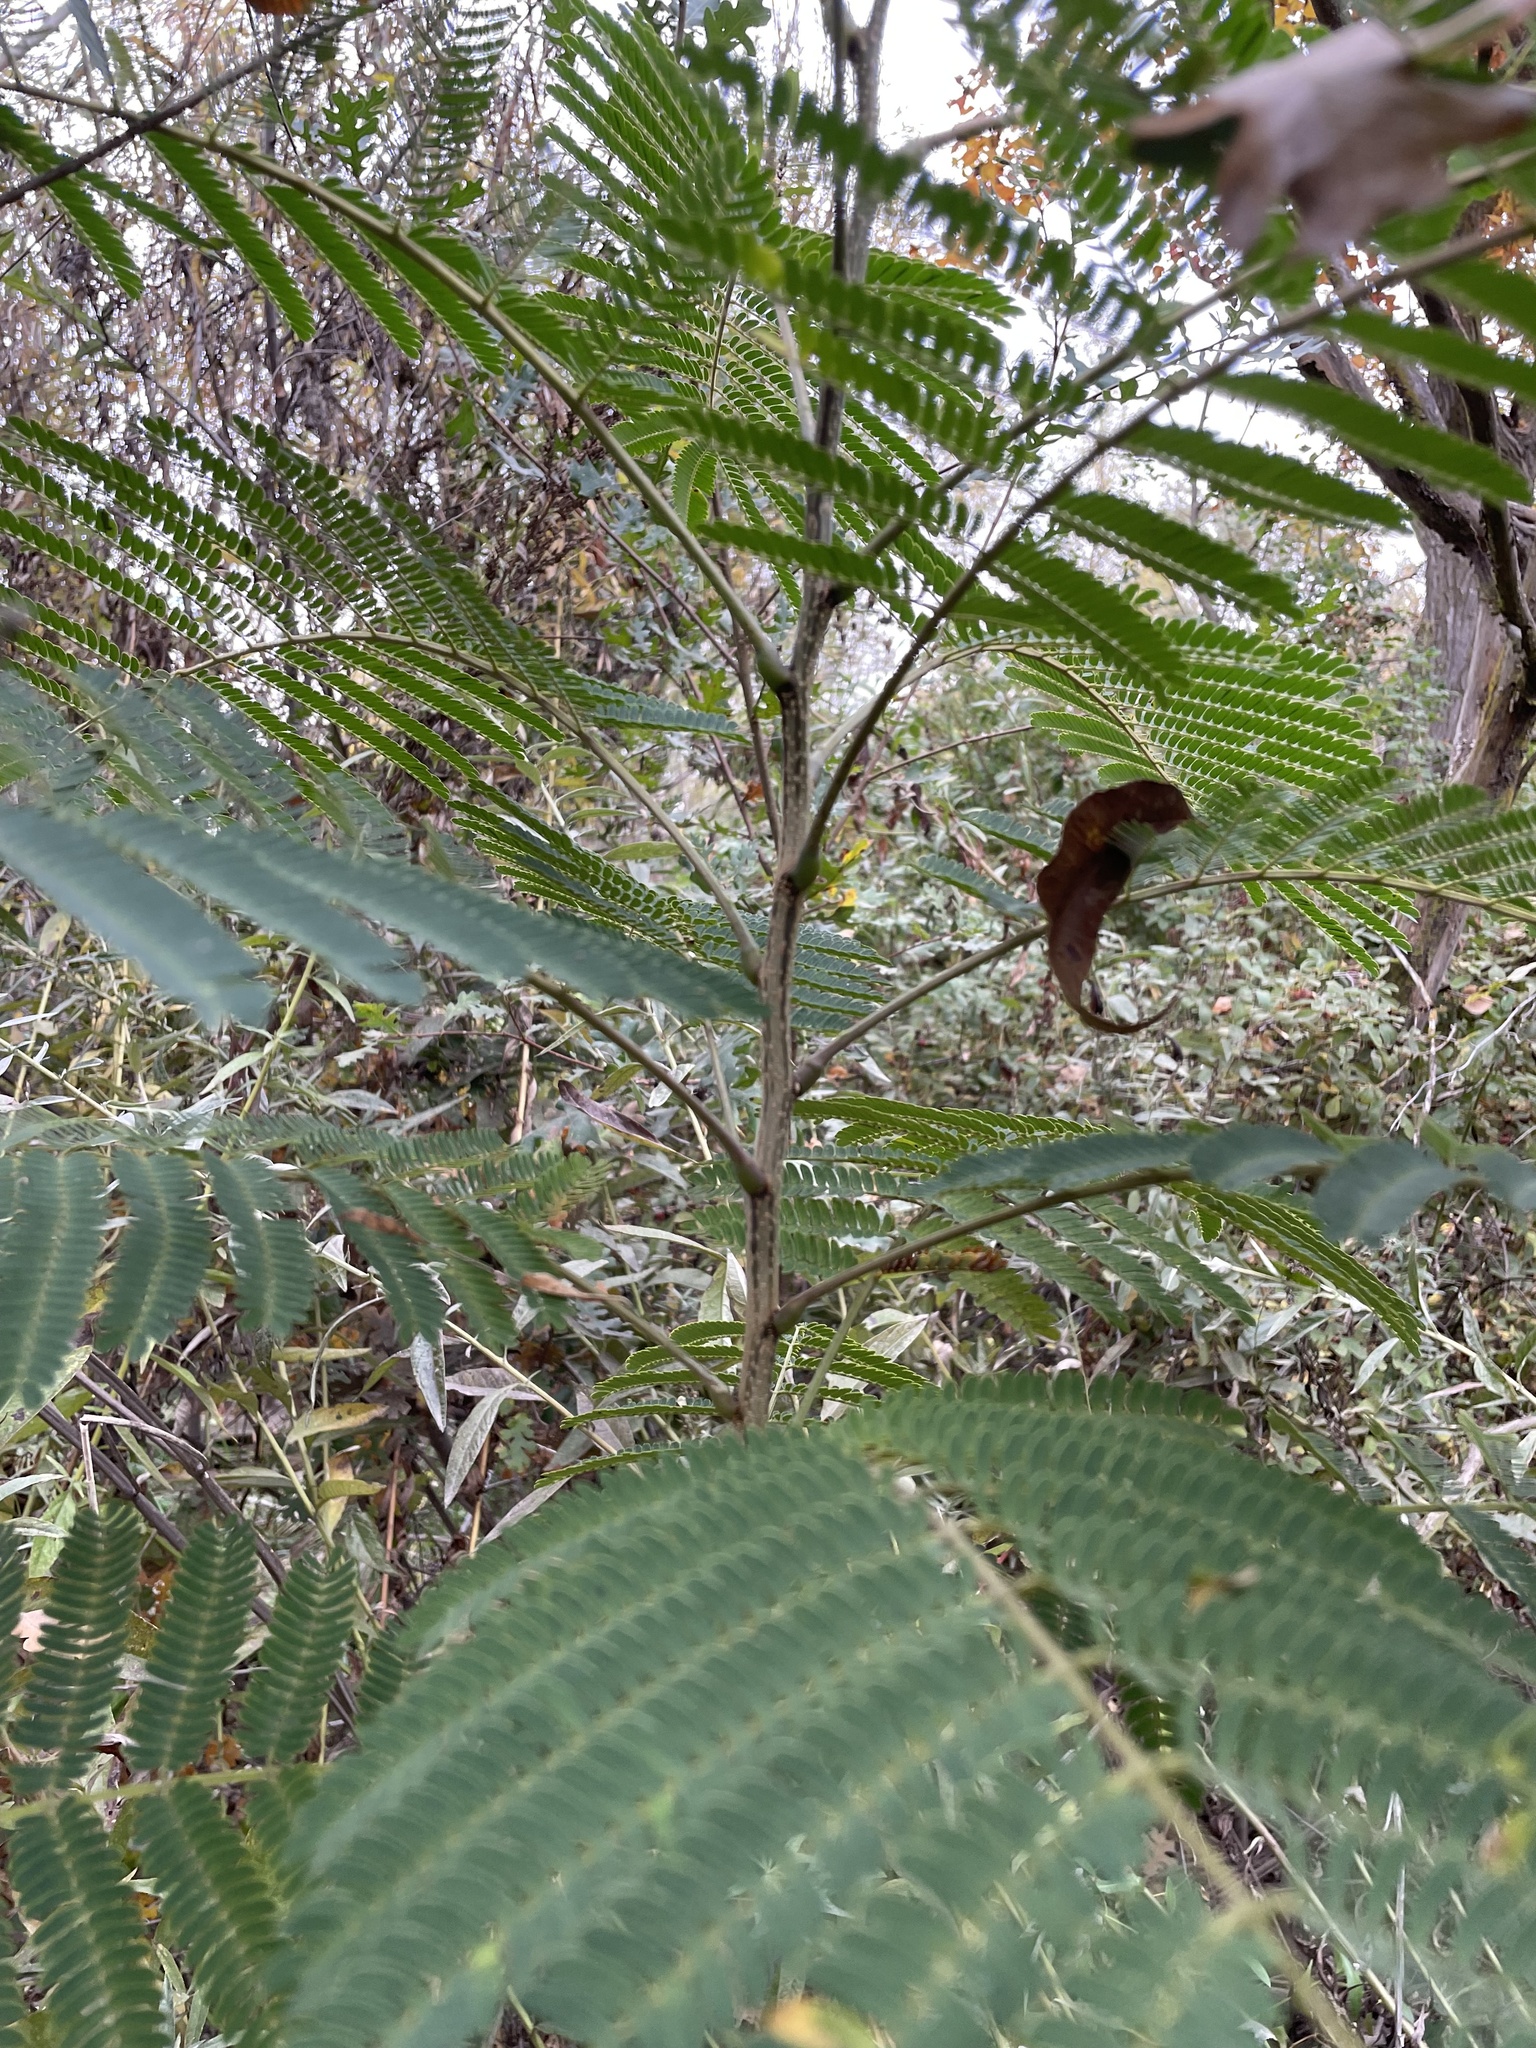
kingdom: Plantae
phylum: Tracheophyta
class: Magnoliopsida
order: Fabales
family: Fabaceae
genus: Albizia
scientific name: Albizia julibrissin
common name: Silktree
